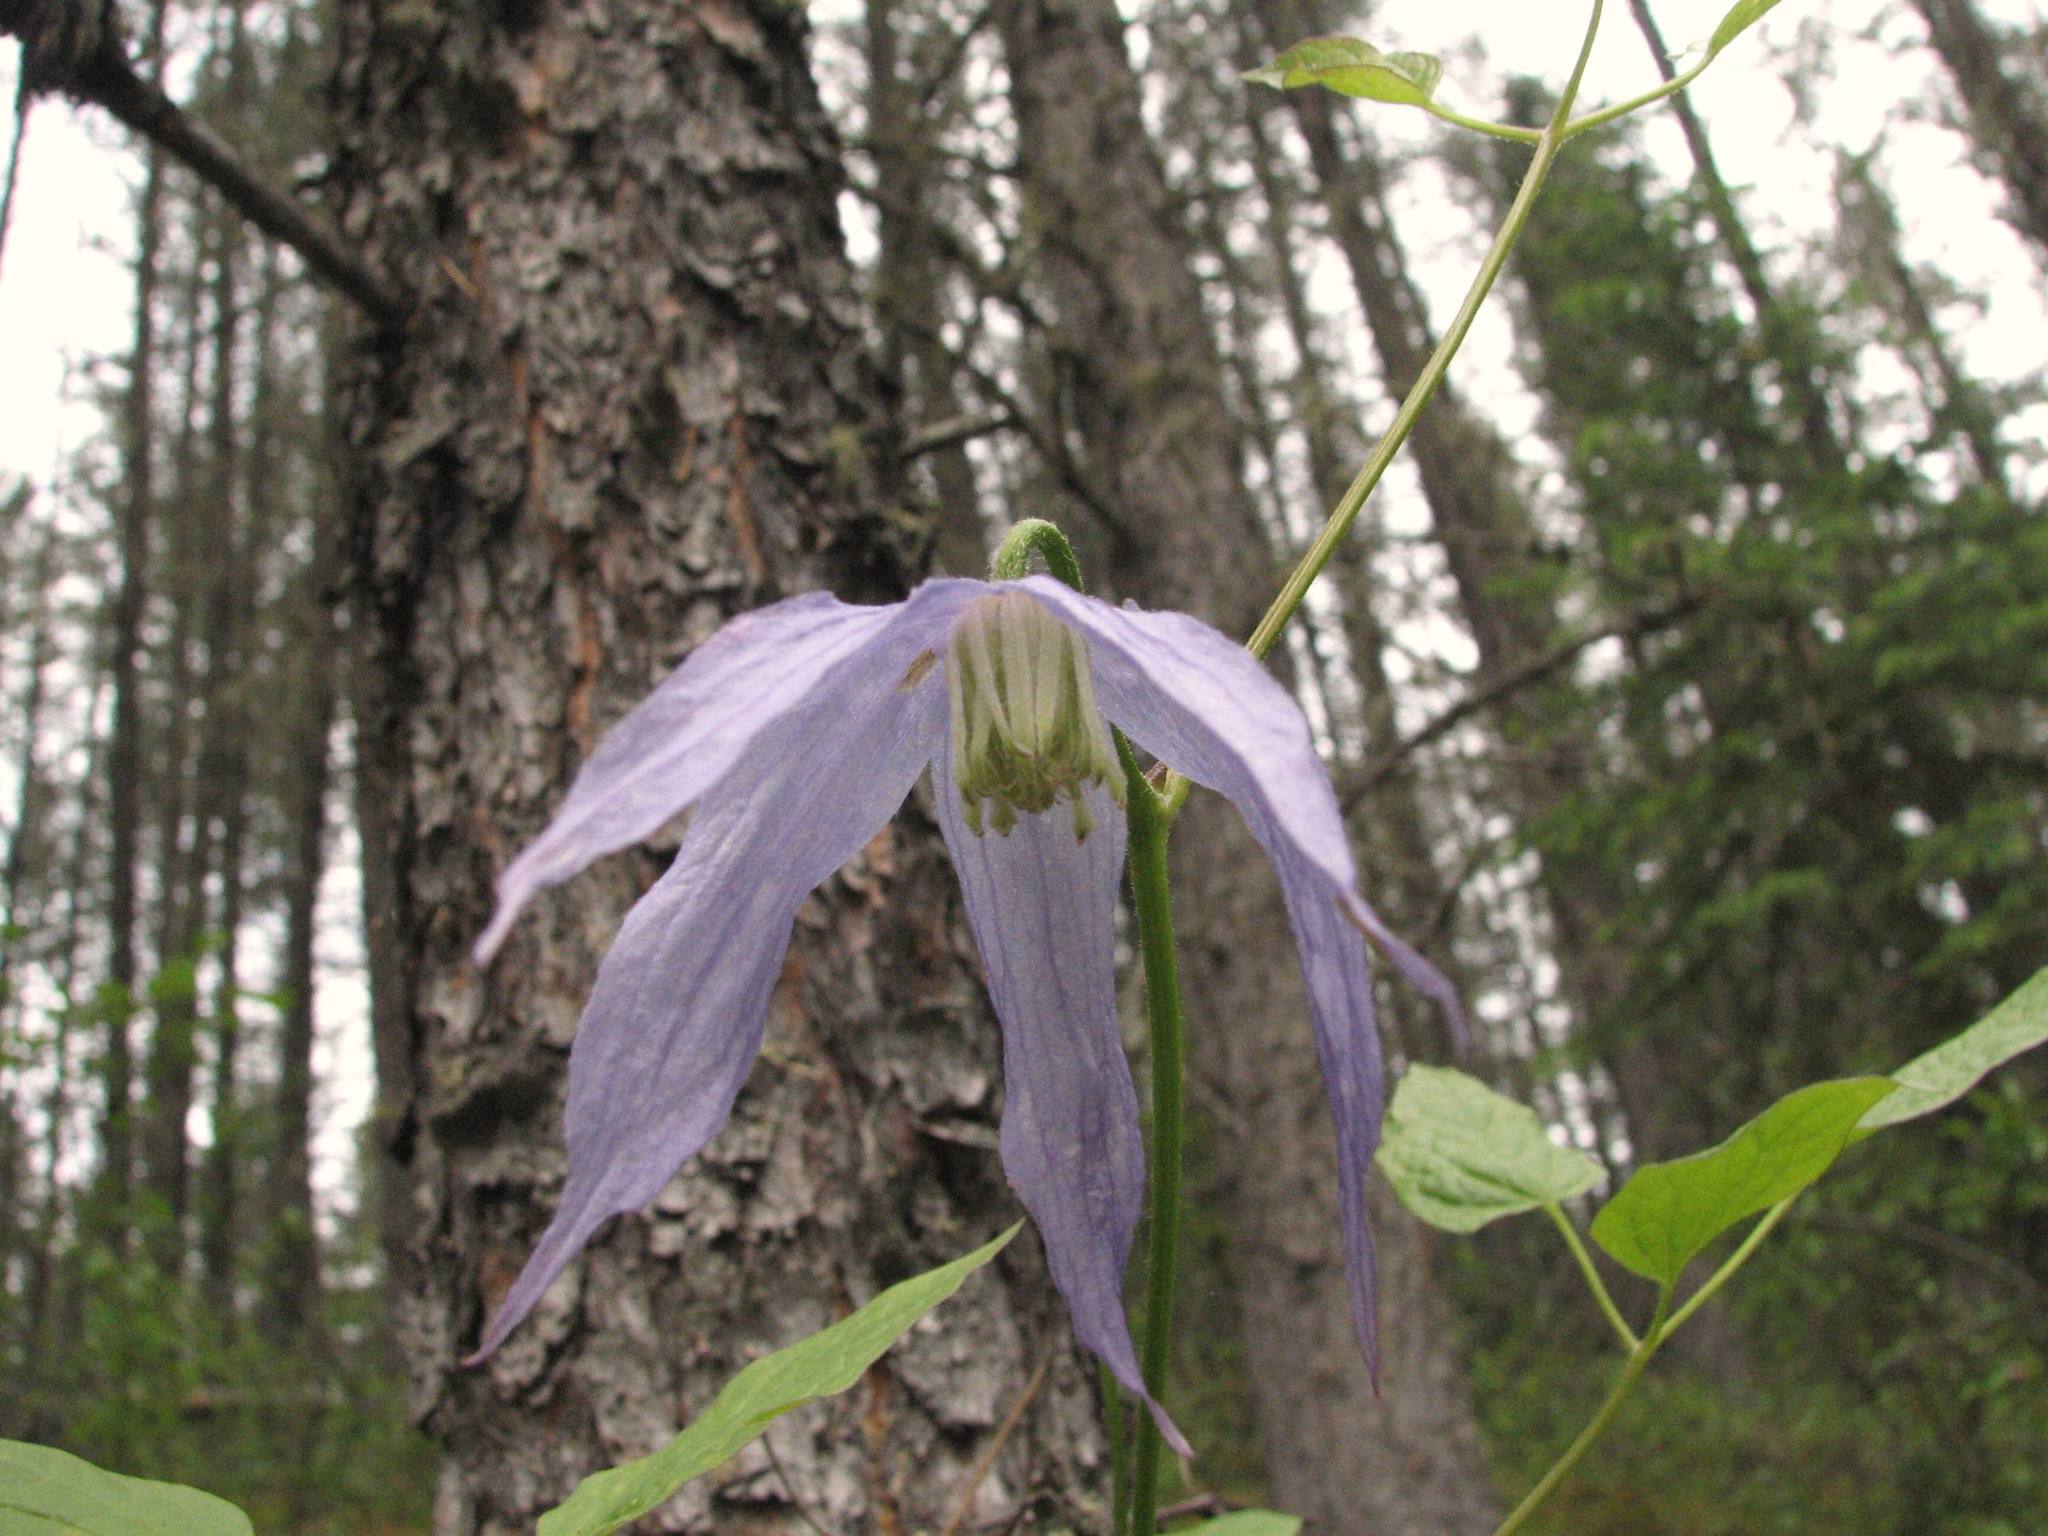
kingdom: Plantae
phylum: Tracheophyta
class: Magnoliopsida
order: Ranunculales
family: Ranunculaceae
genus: Clematis
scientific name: Clematis occidentalis
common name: Purple clematis
